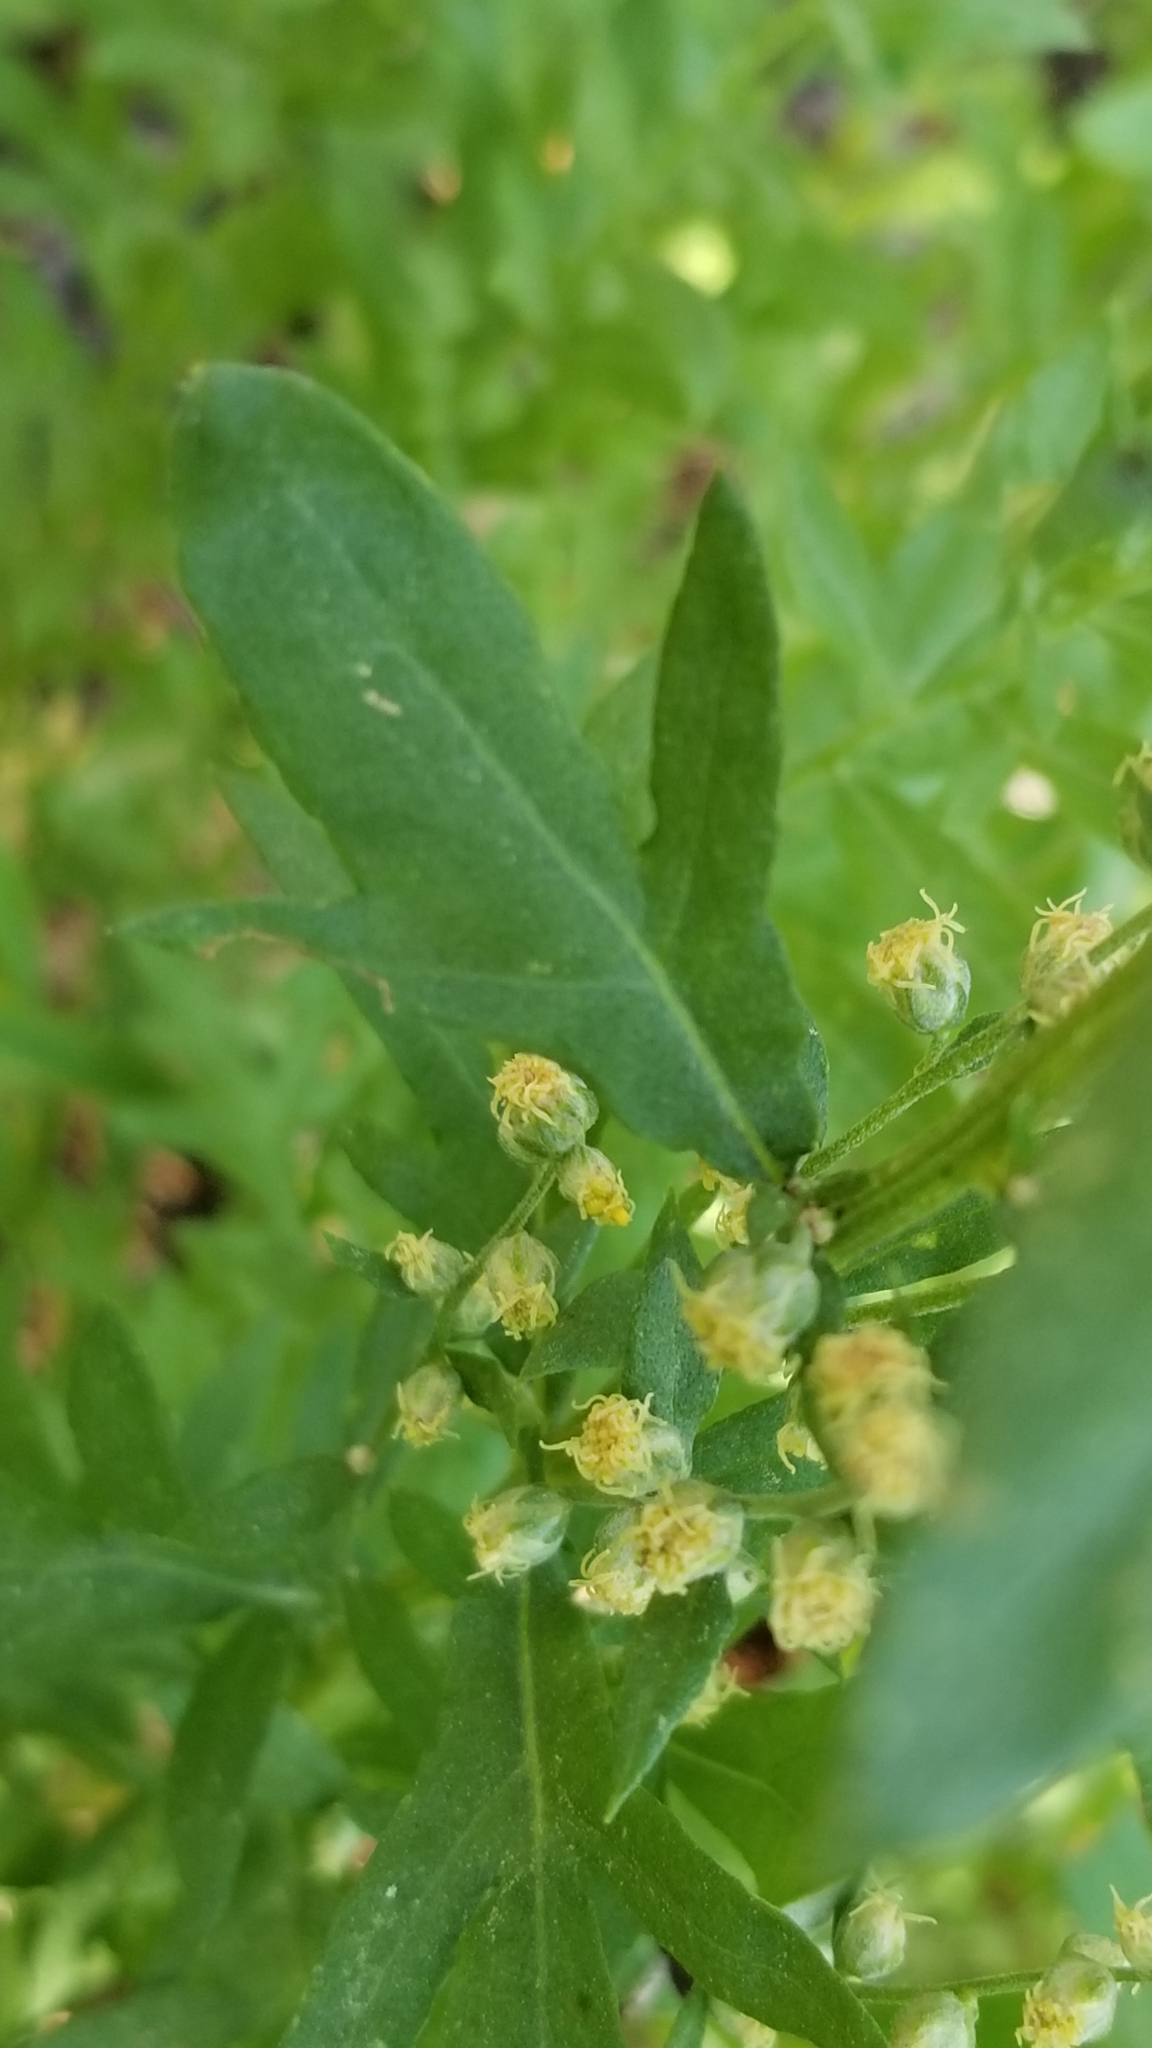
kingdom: Plantae
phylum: Tracheophyta
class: Magnoliopsida
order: Asterales
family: Asteraceae
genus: Artemisia
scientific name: Artemisia douglasiana
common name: Northwest mugwort
